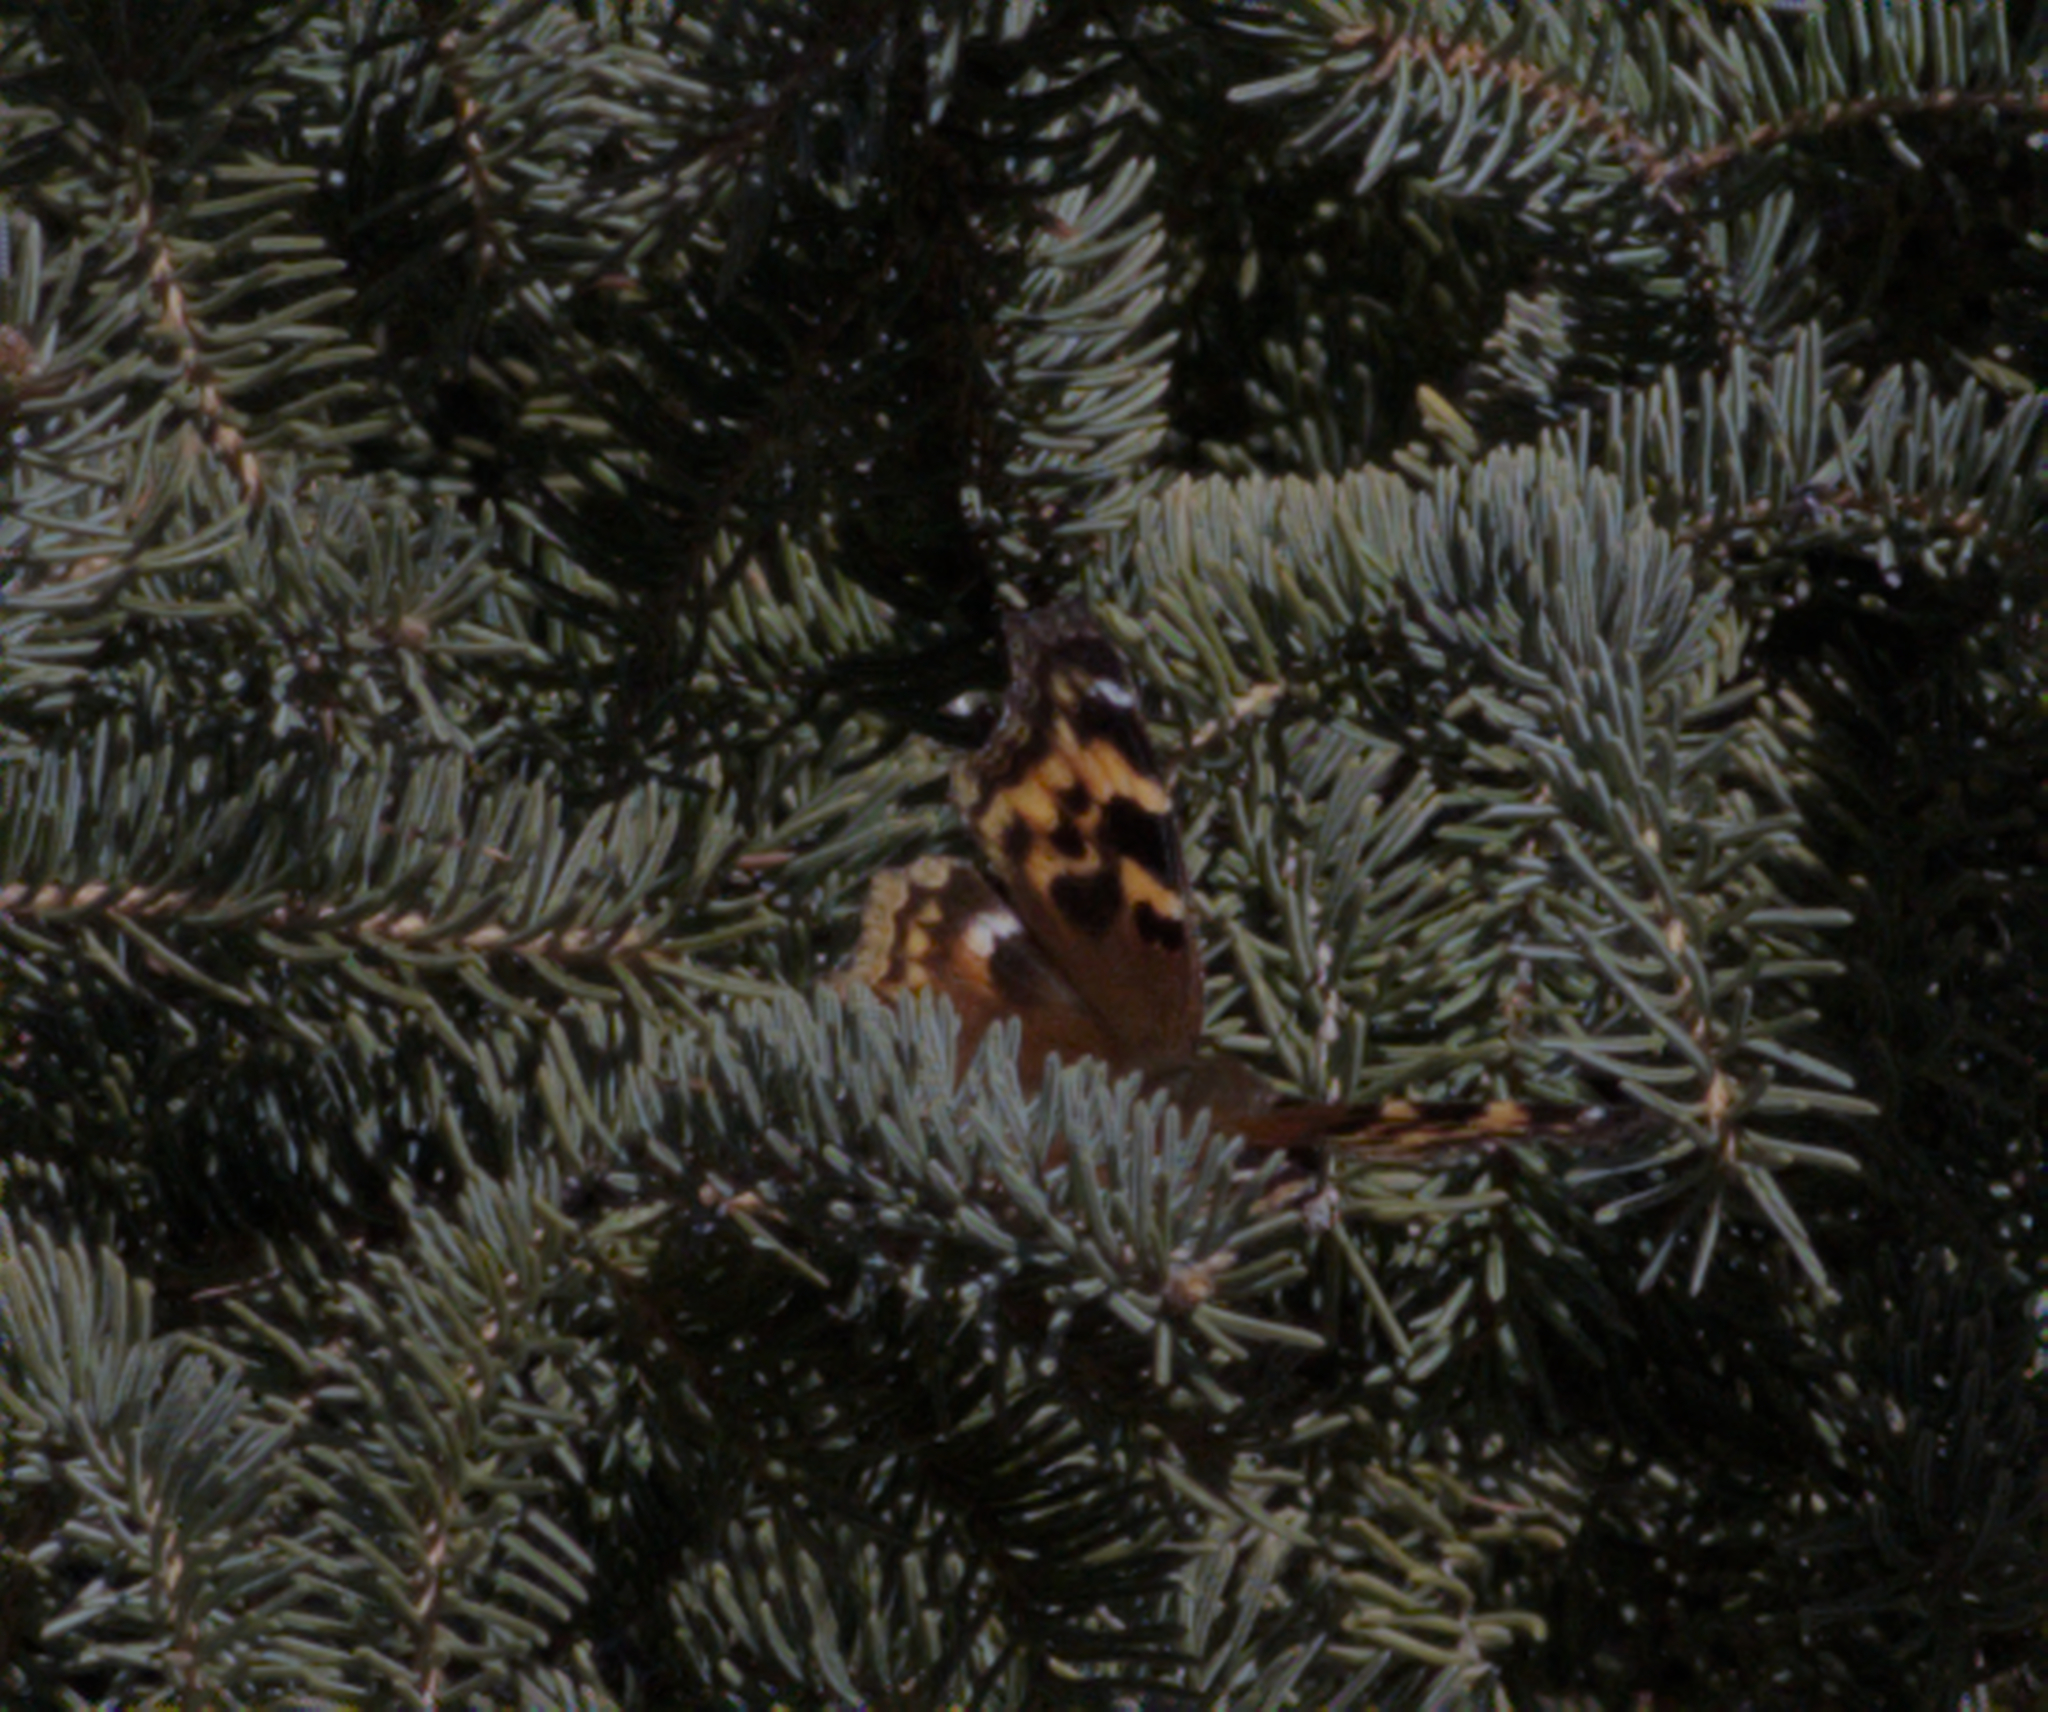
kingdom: Animalia
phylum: Arthropoda
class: Insecta
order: Lepidoptera
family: Nymphalidae
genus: Polygonia
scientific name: Polygonia vaualbum
